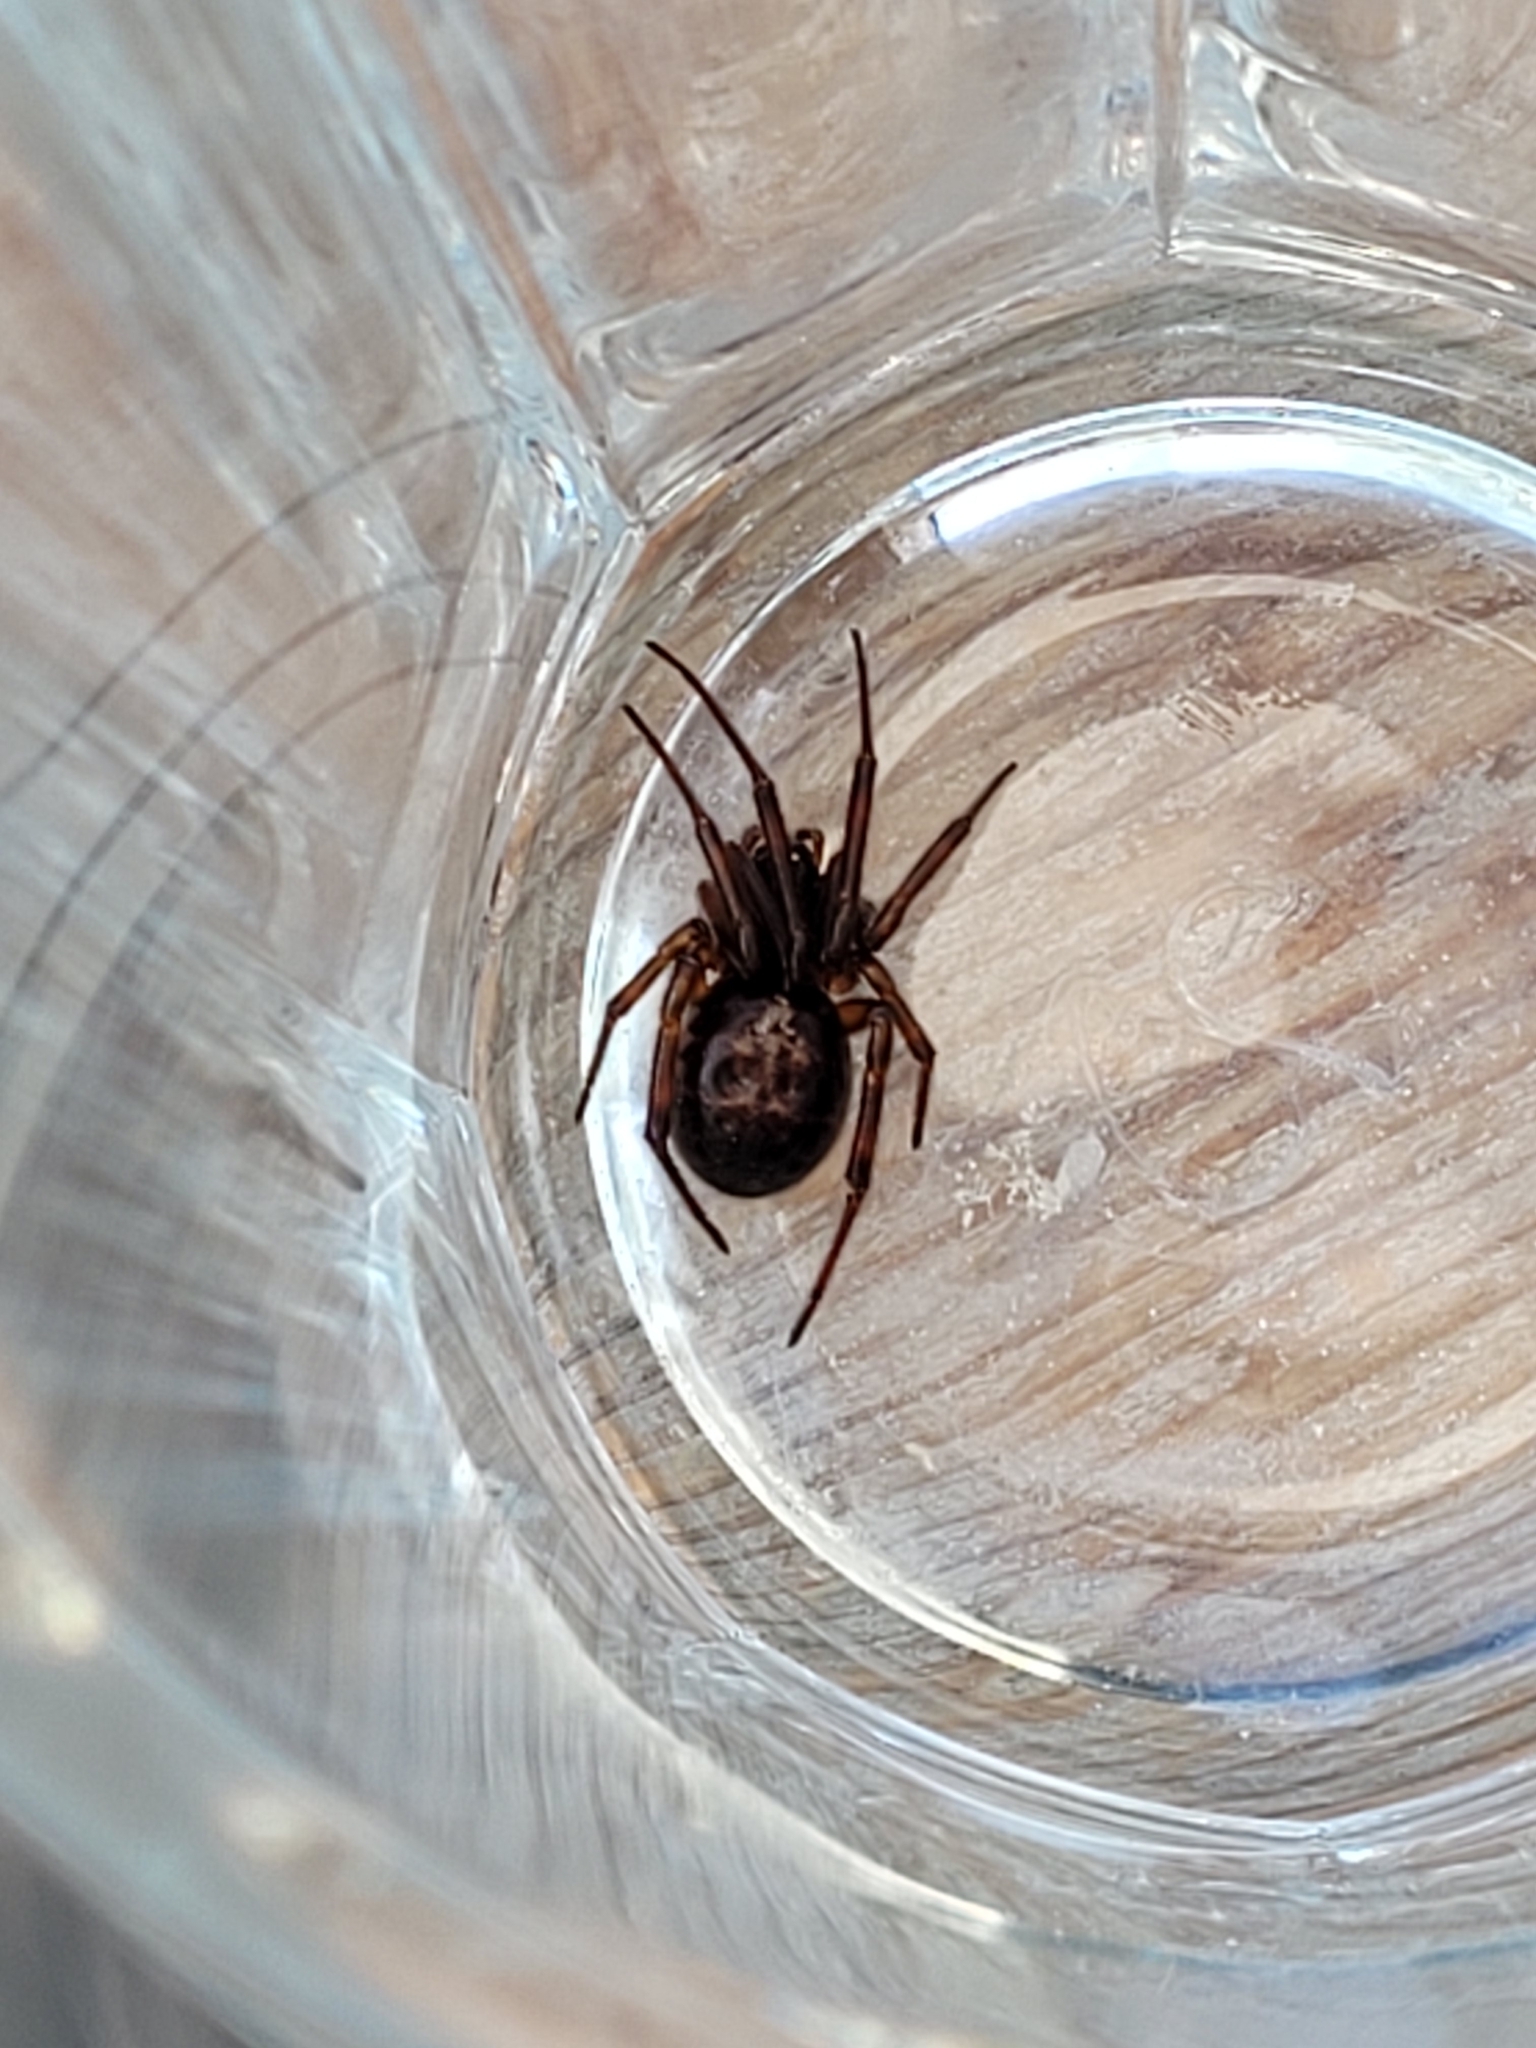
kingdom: Animalia
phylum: Arthropoda
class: Arachnida
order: Araneae
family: Theridiidae
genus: Steatoda
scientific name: Steatoda nobilis
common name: Cobweb weaver
